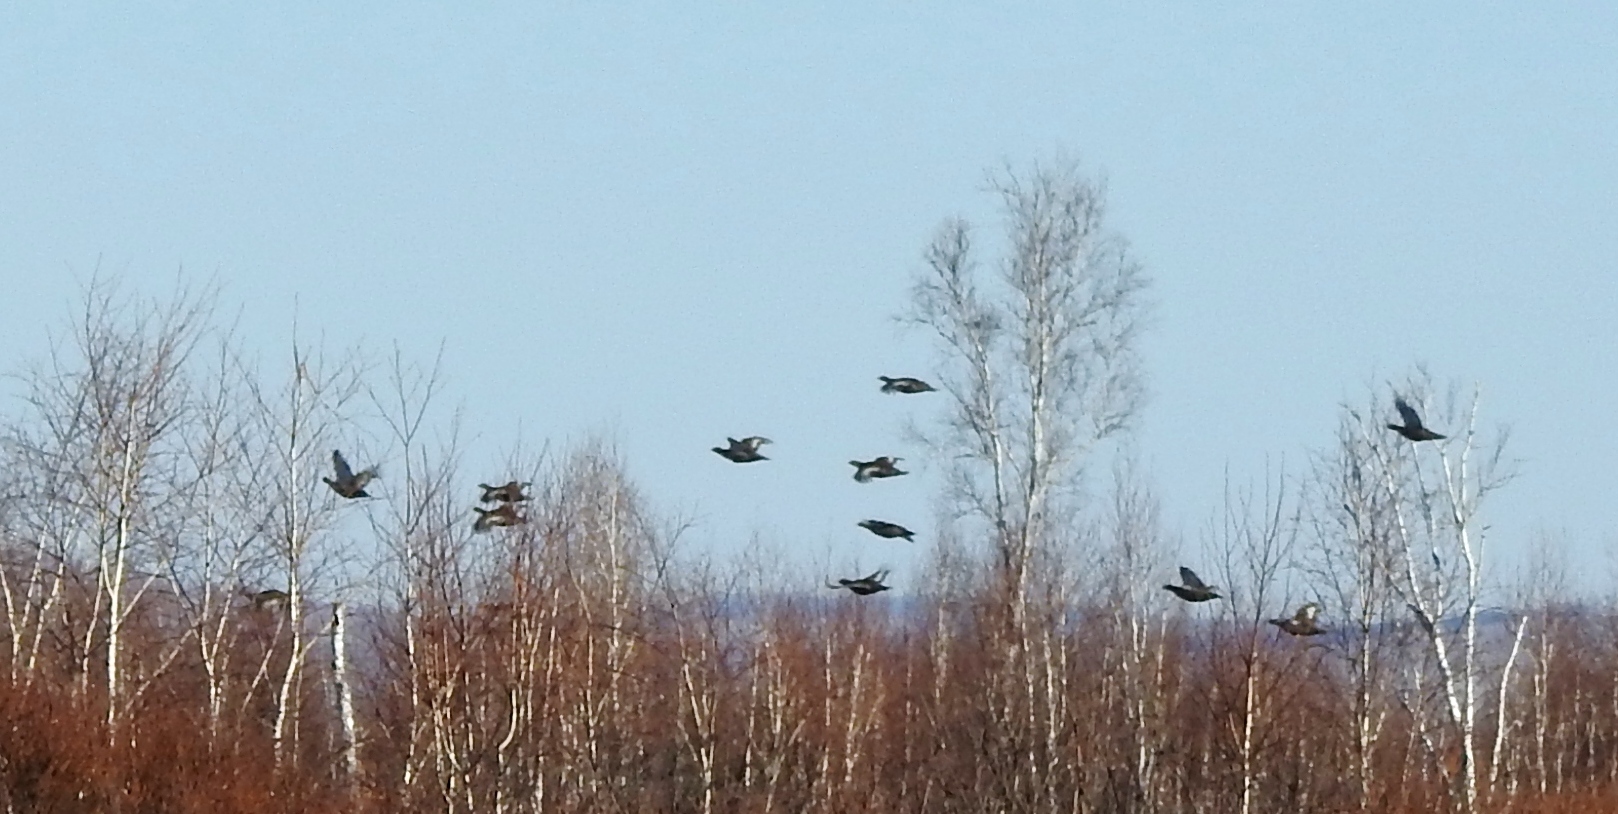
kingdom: Animalia
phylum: Chordata
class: Aves
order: Galliformes
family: Phasianidae
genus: Lyrurus
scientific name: Lyrurus tetrix
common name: Black grouse
